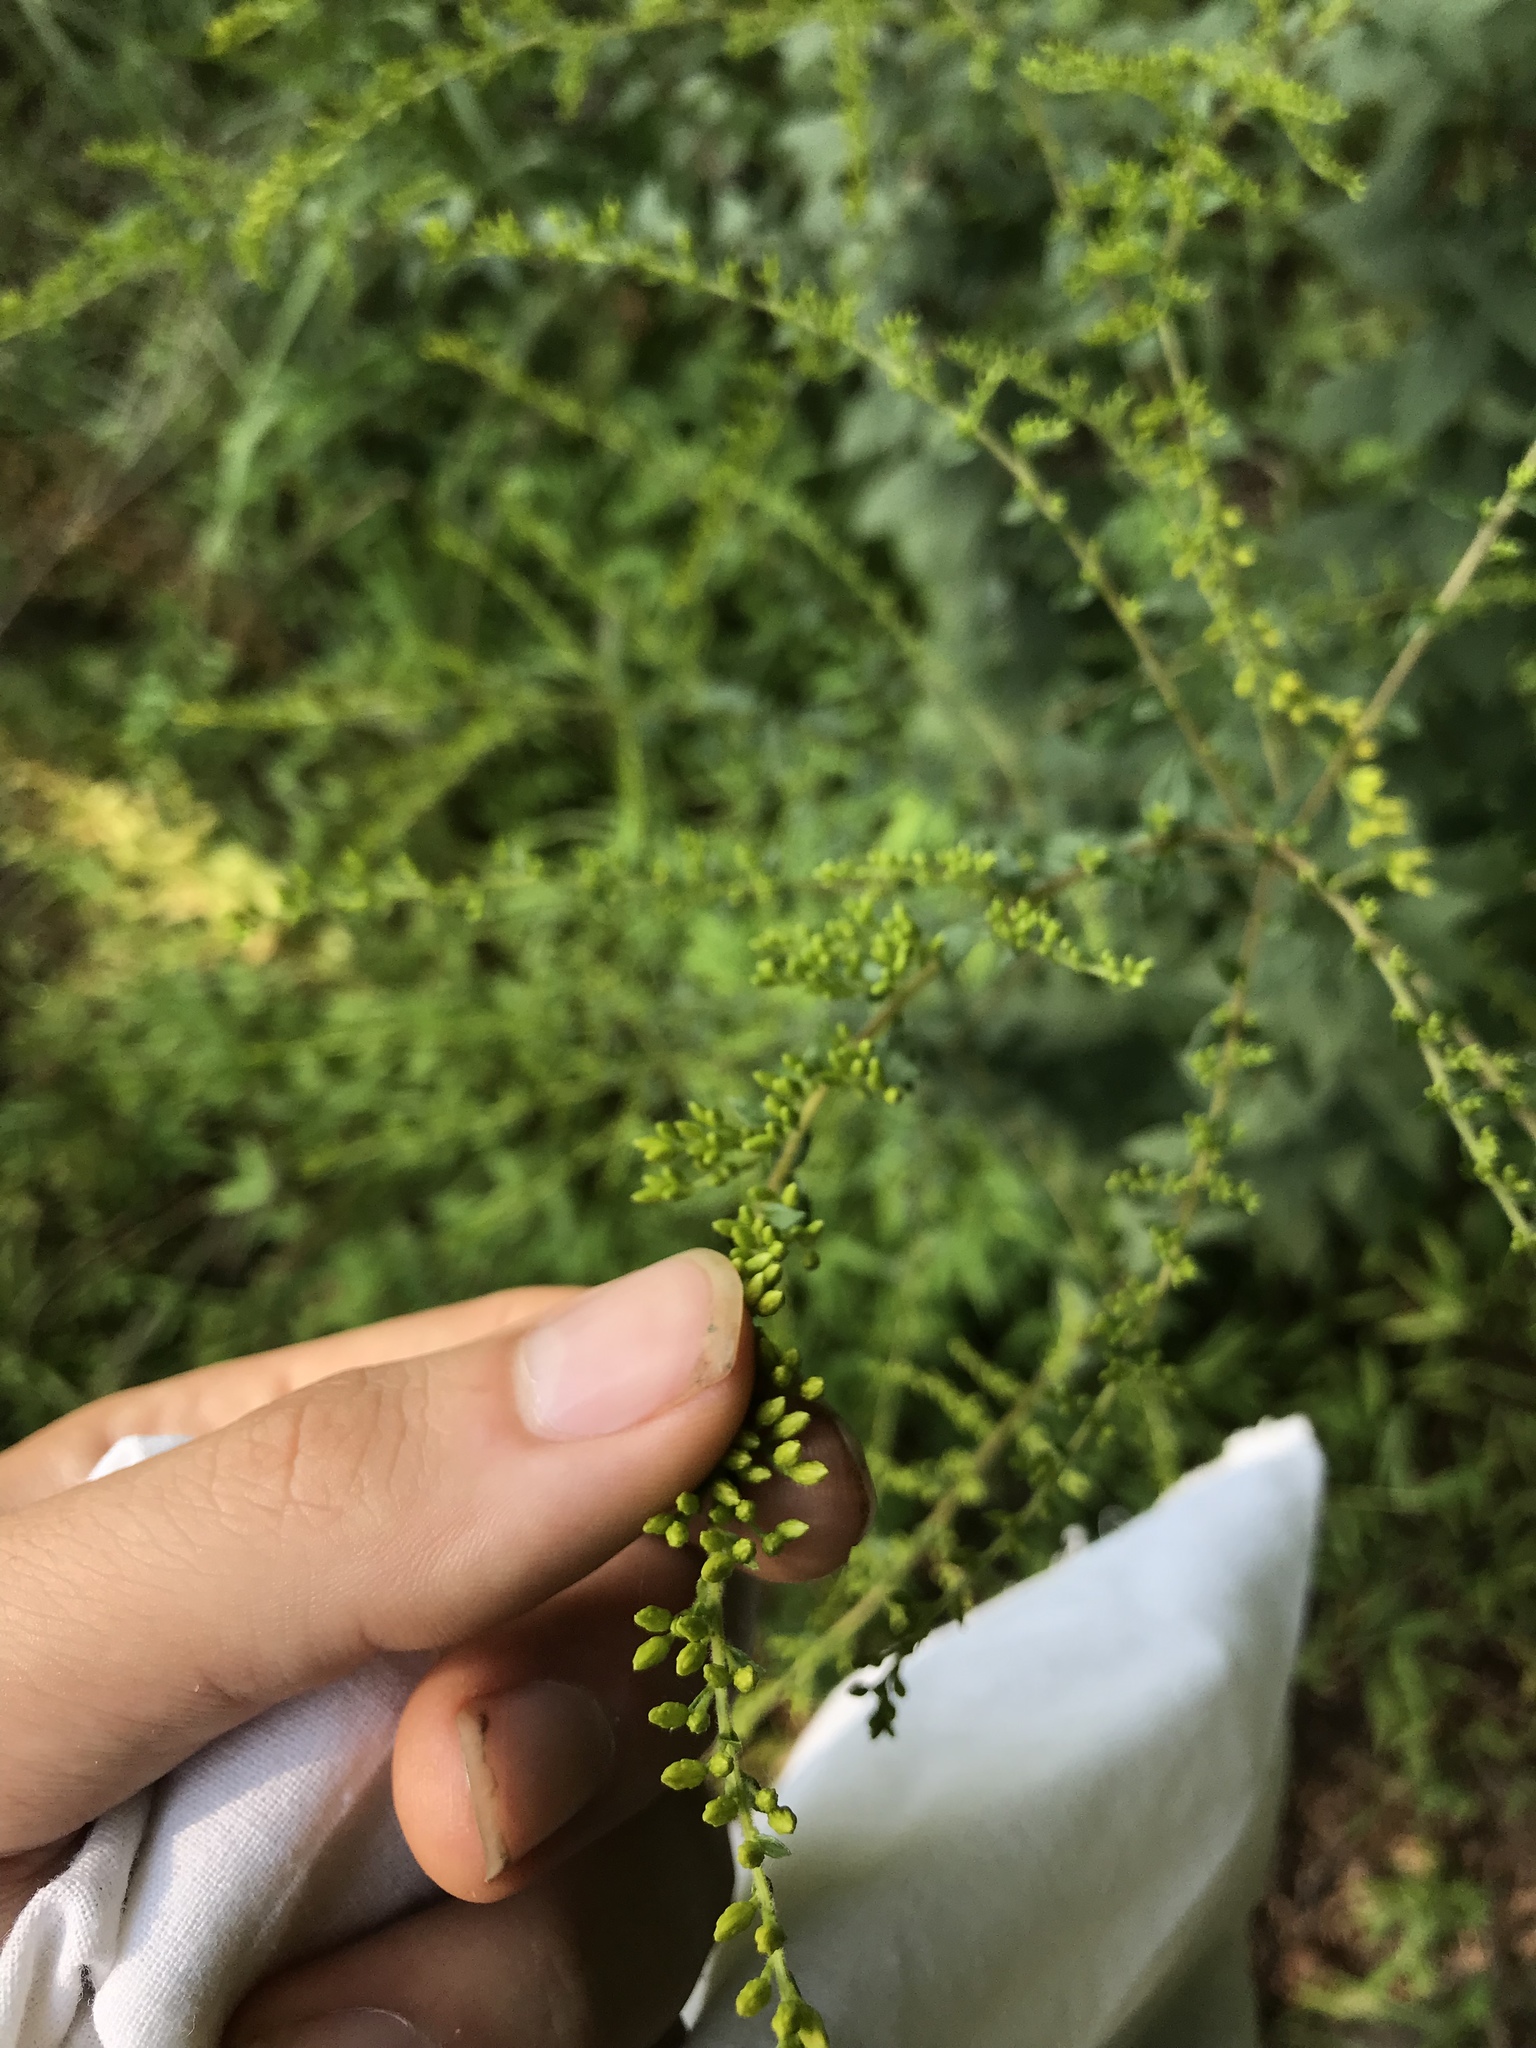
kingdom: Plantae
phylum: Tracheophyta
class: Magnoliopsida
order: Asterales
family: Asteraceae
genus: Solidago
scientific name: Solidago rugosa
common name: Rough-stemmed goldenrod
